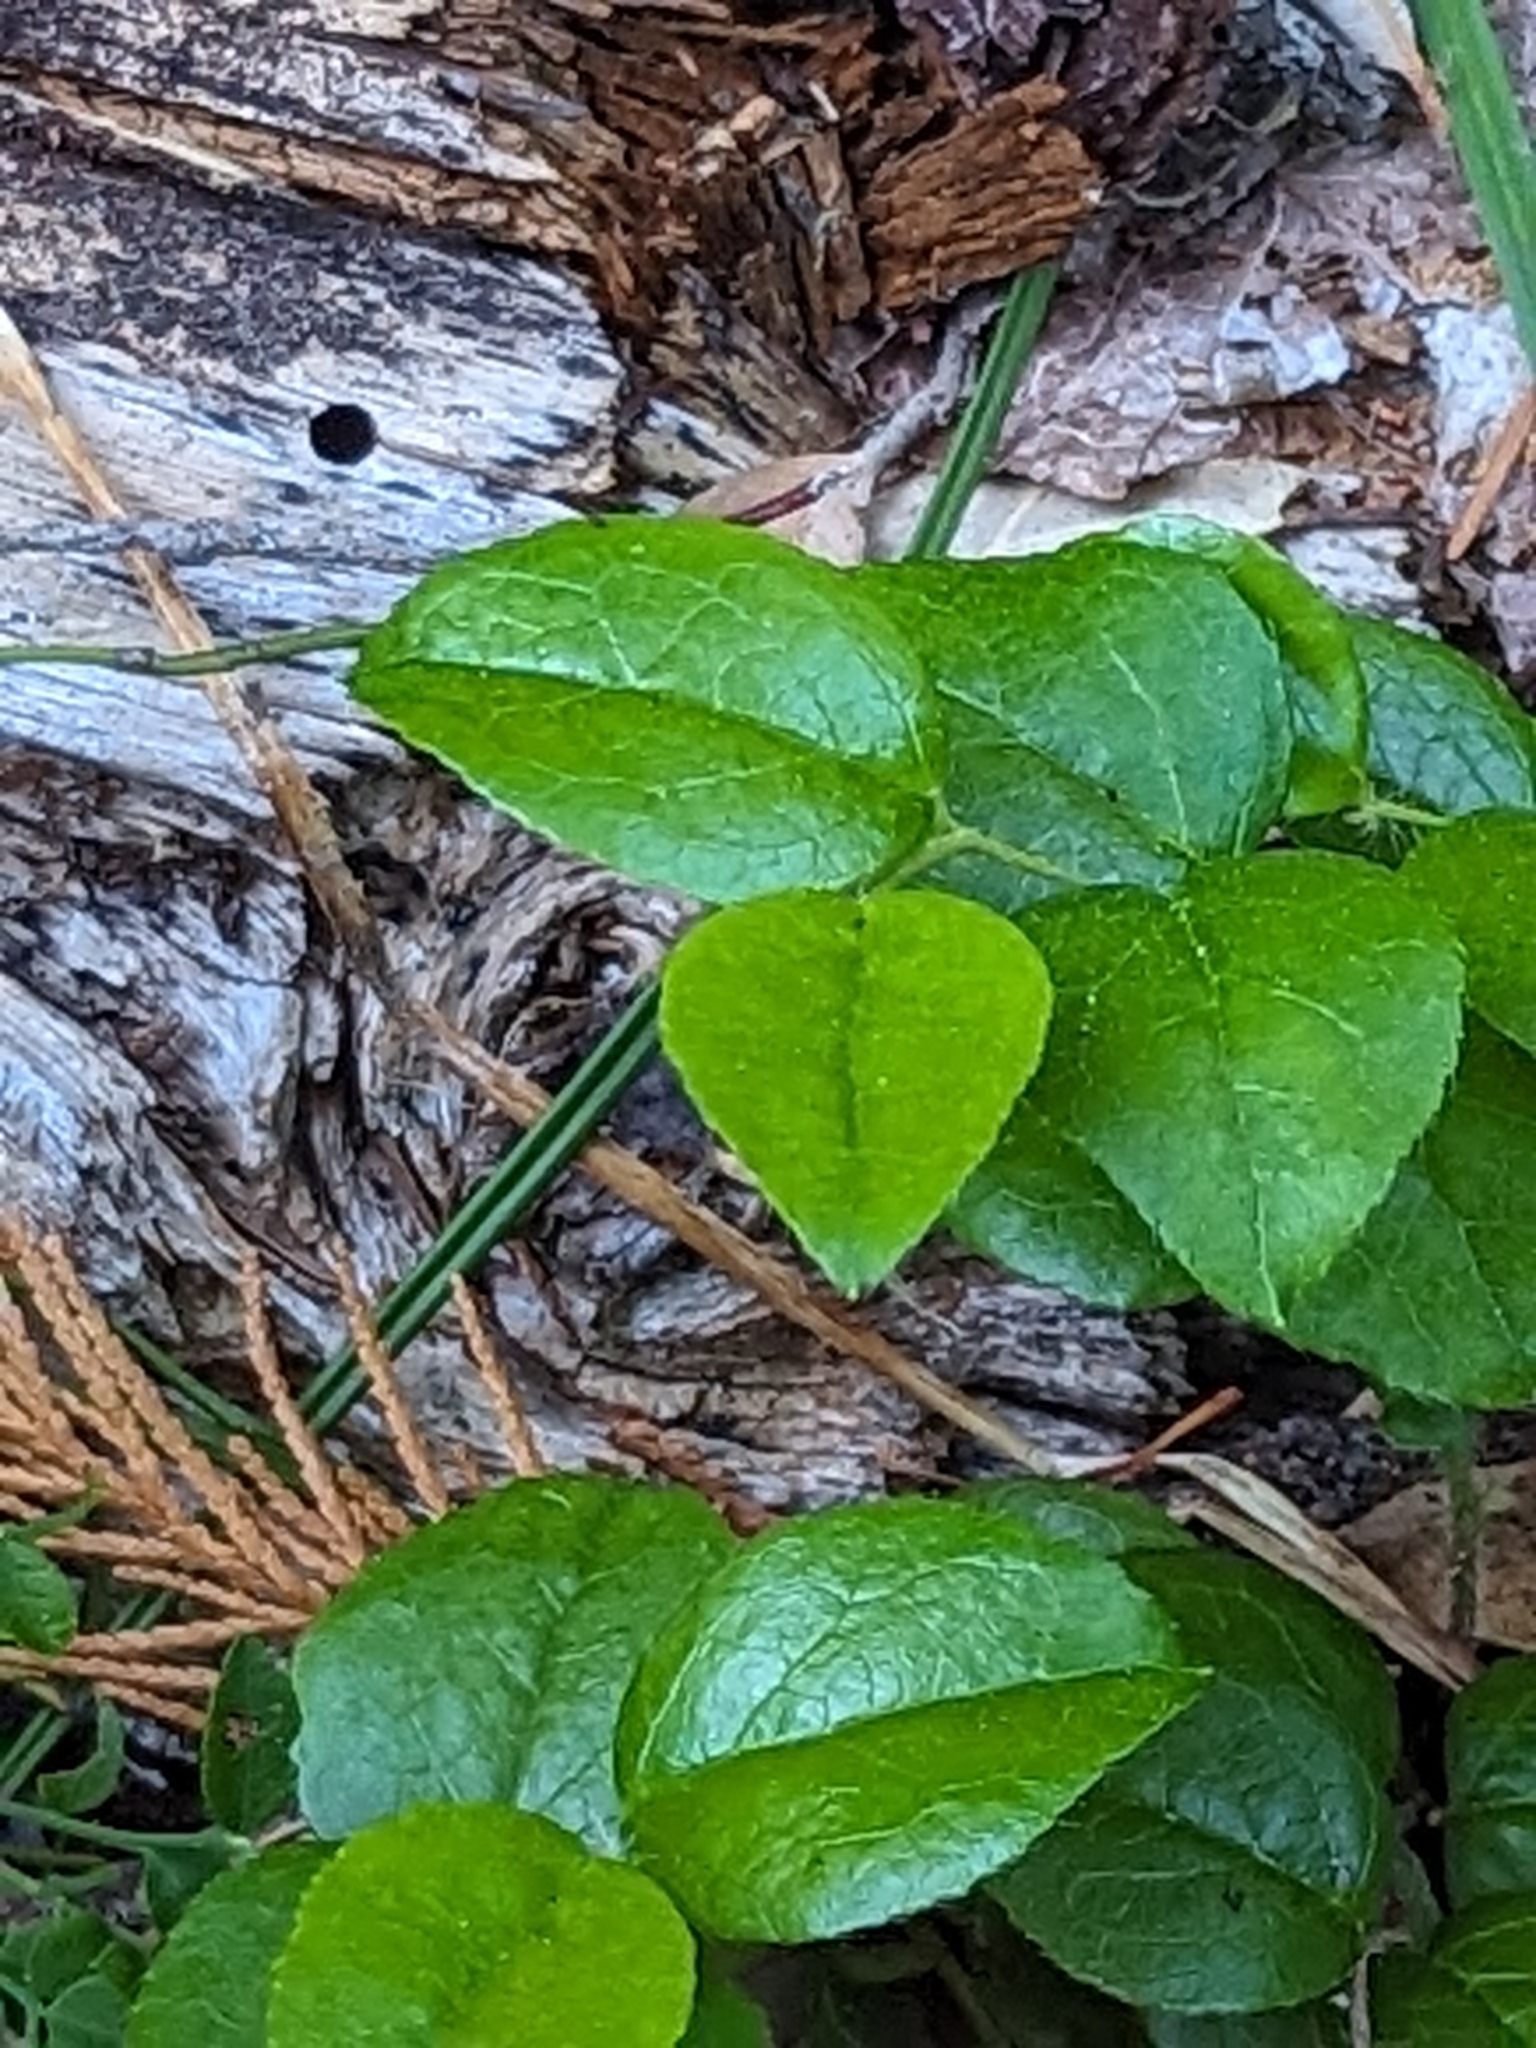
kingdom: Plantae
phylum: Tracheophyta
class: Magnoliopsida
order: Ericales
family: Ericaceae
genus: Gaultheria
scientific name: Gaultheria ovatifolia
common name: Oregon wintergreen
